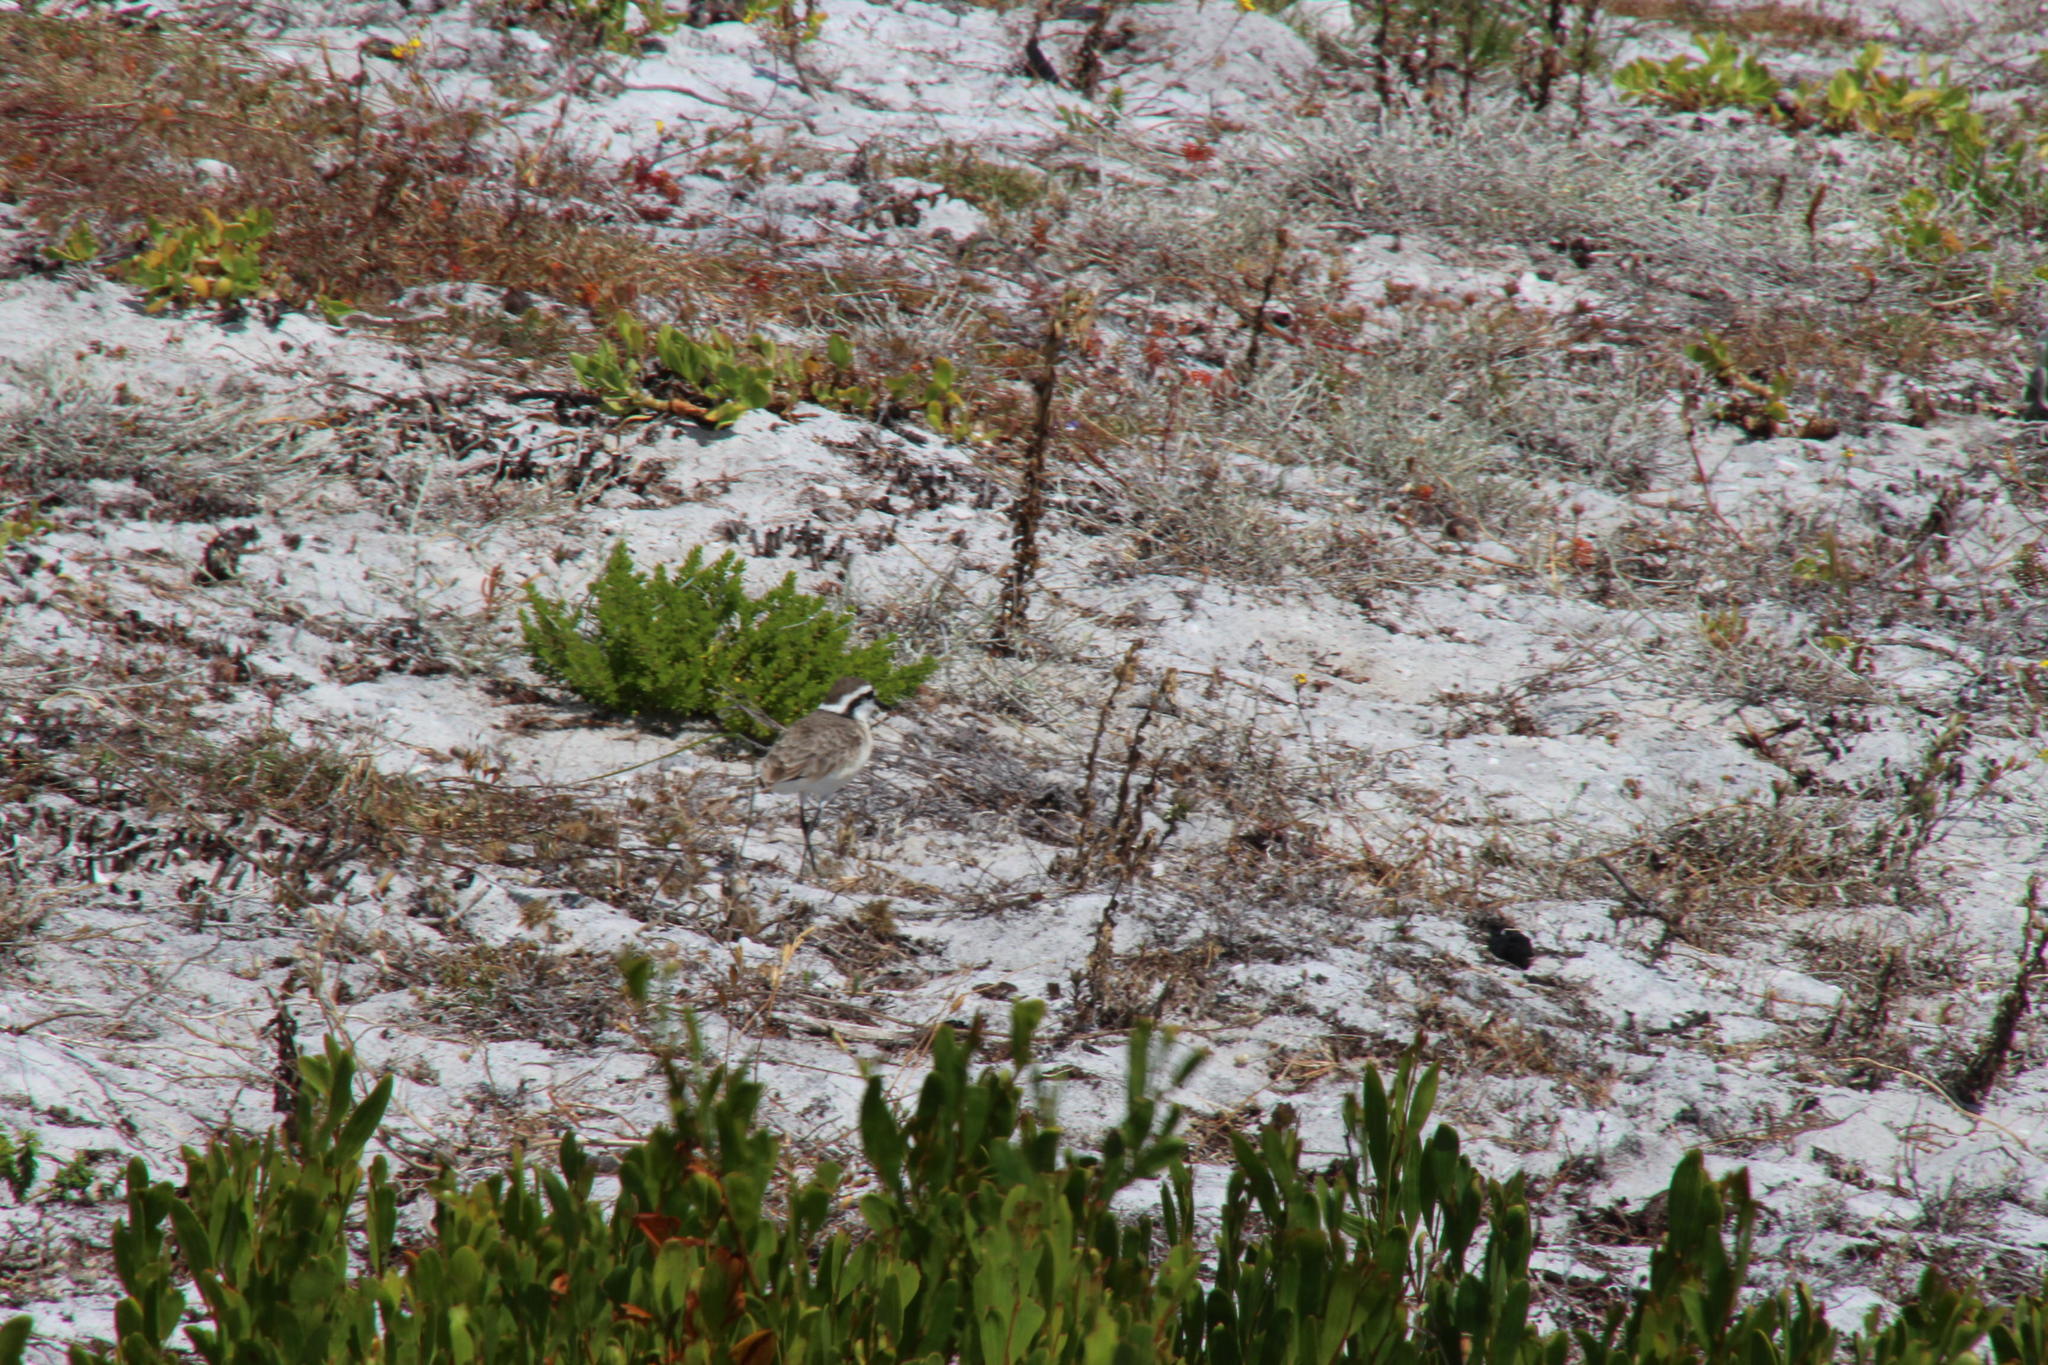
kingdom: Animalia
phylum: Chordata
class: Aves
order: Charadriiformes
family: Charadriidae
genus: Anarhynchus
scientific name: Anarhynchus
